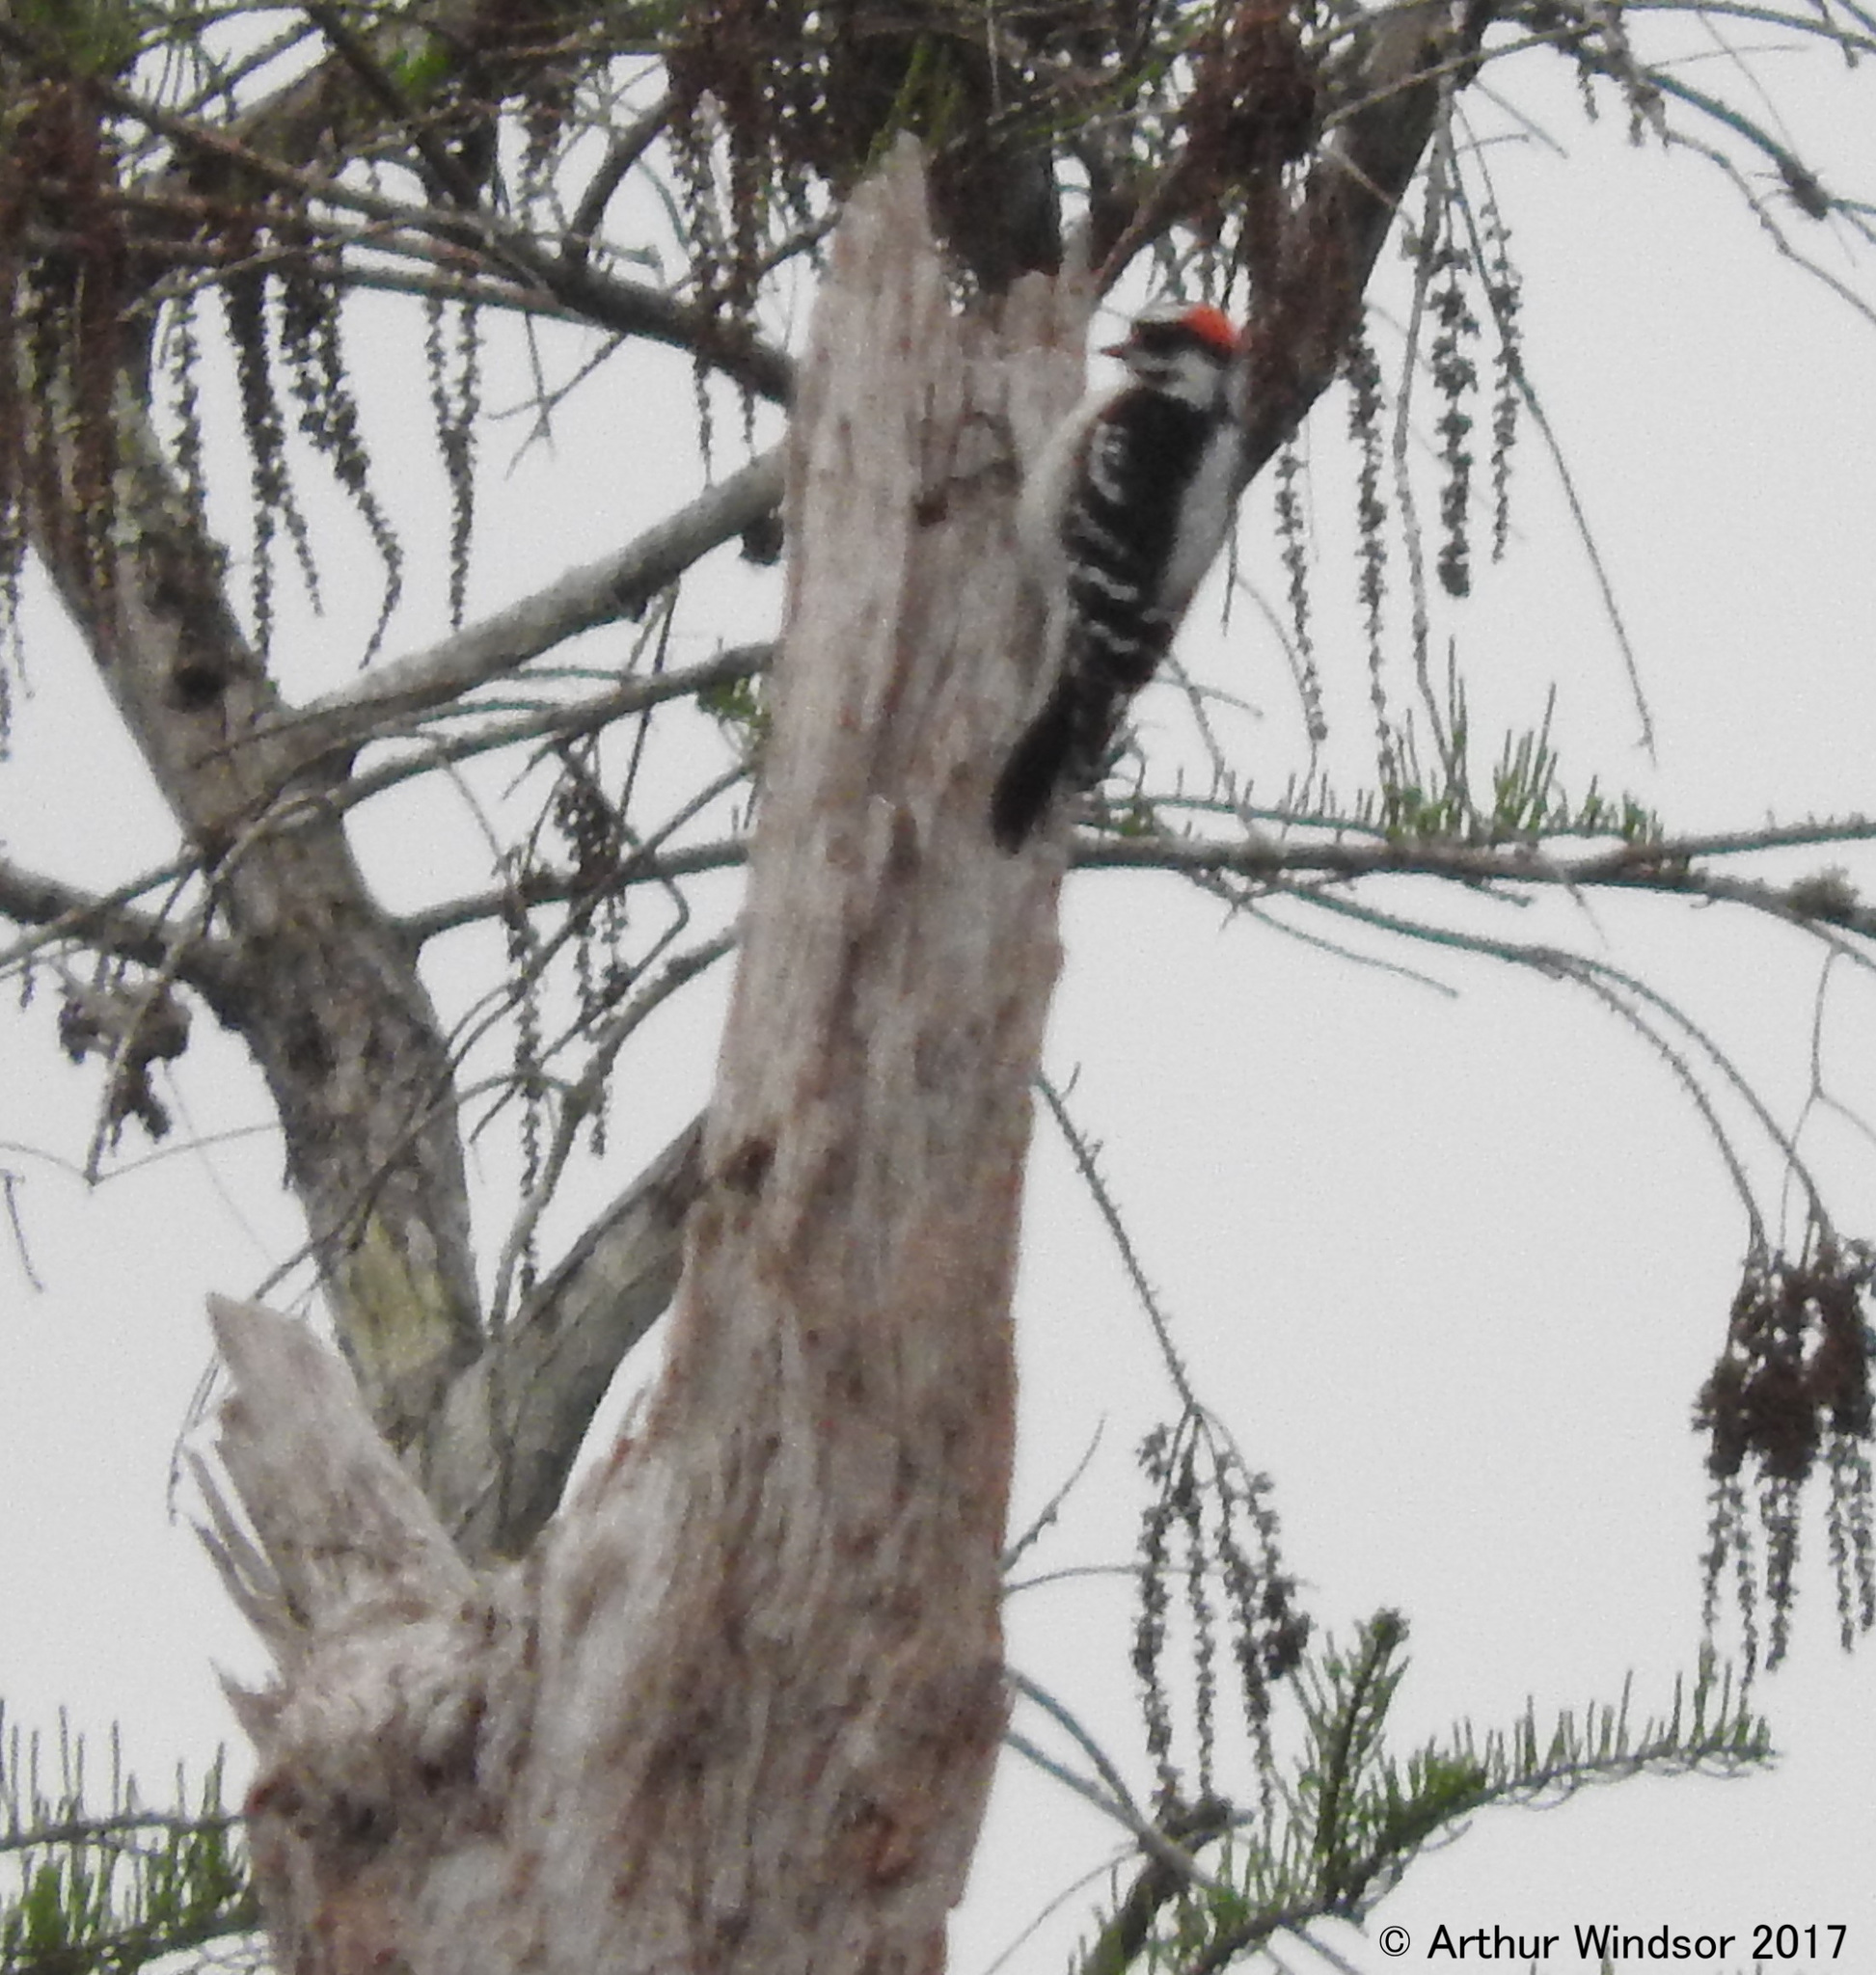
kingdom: Animalia
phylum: Chordata
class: Aves
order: Piciformes
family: Picidae
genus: Dryobates
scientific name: Dryobates pubescens
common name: Downy woodpecker
